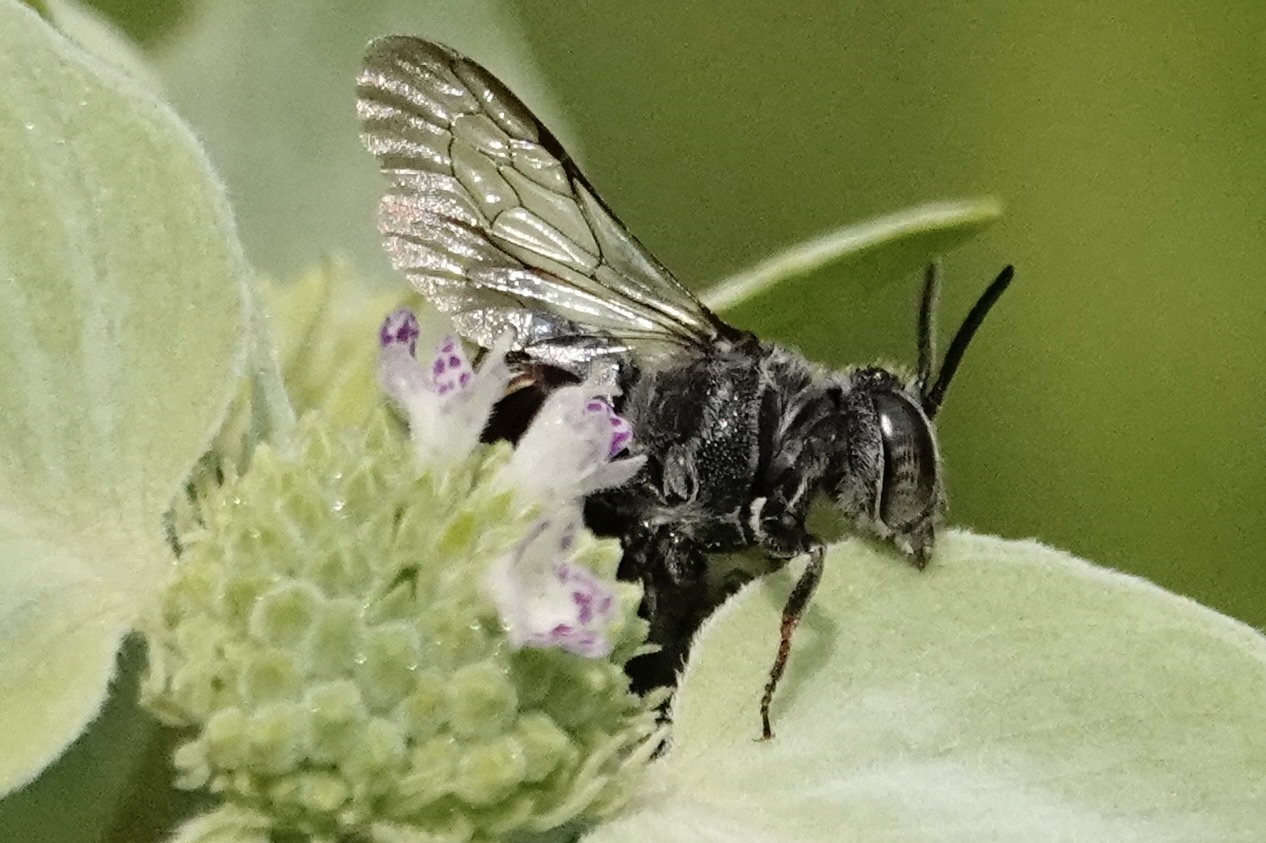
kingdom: Animalia
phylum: Arthropoda
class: Insecta
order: Hymenoptera
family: Megachilidae
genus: Coelioxys
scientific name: Coelioxys sayi
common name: Say's cuckoo leaf-cutter bee
